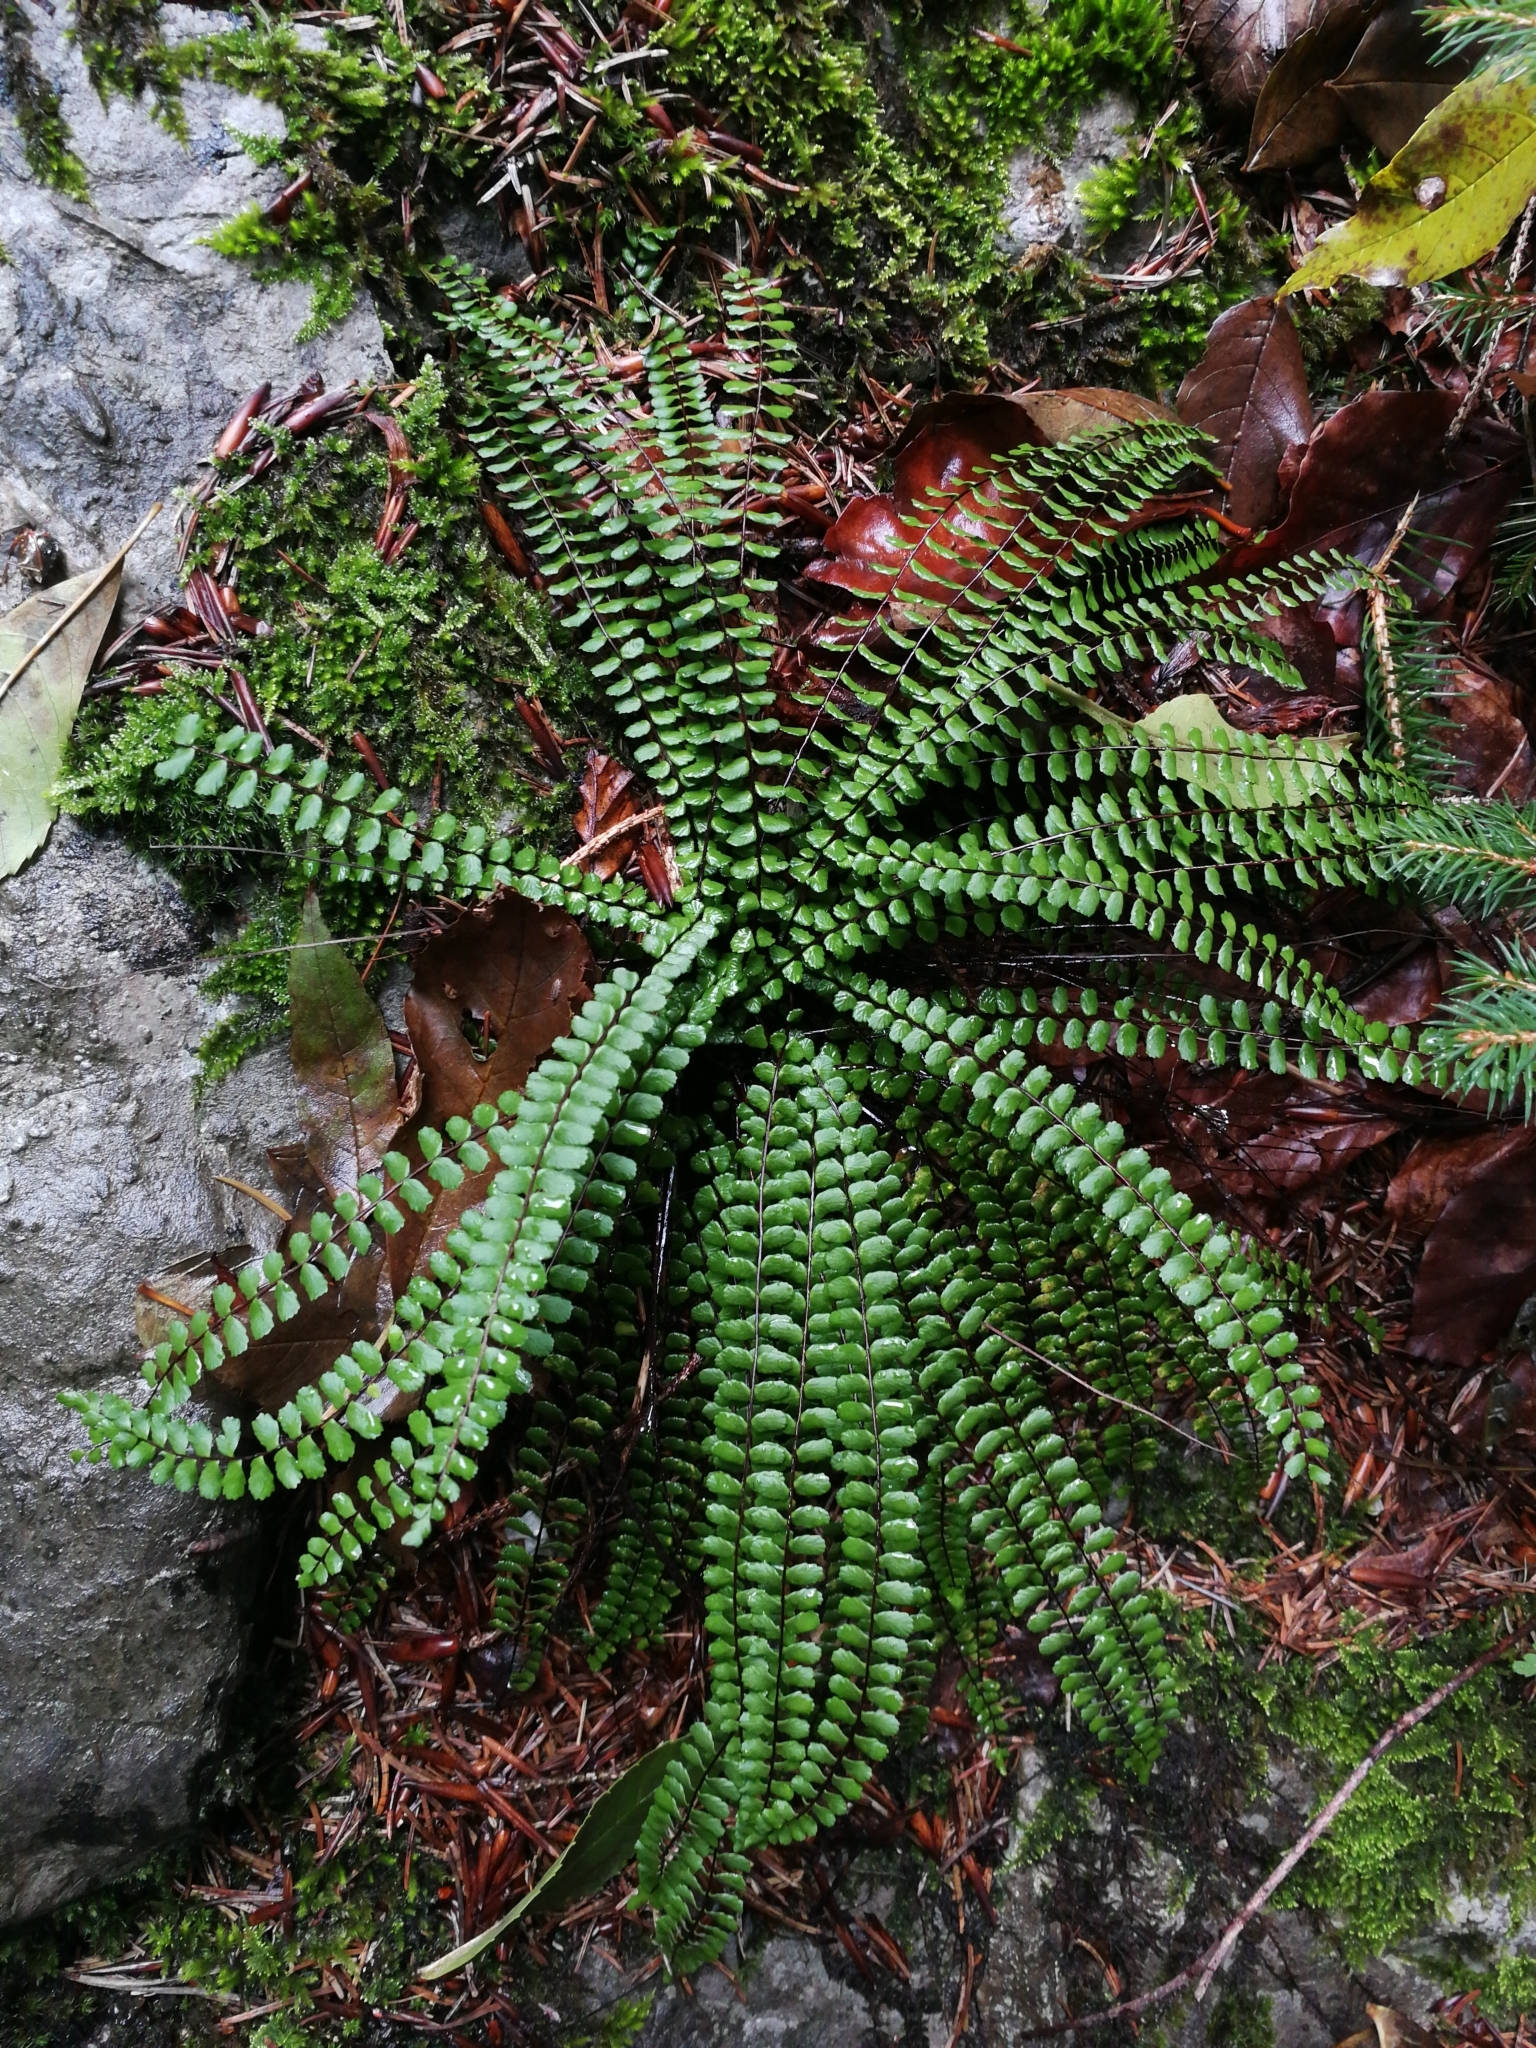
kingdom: Plantae
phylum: Tracheophyta
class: Polypodiopsida
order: Polypodiales
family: Aspleniaceae
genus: Asplenium
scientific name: Asplenium trichomanes
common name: Maidenhair spleenwort
